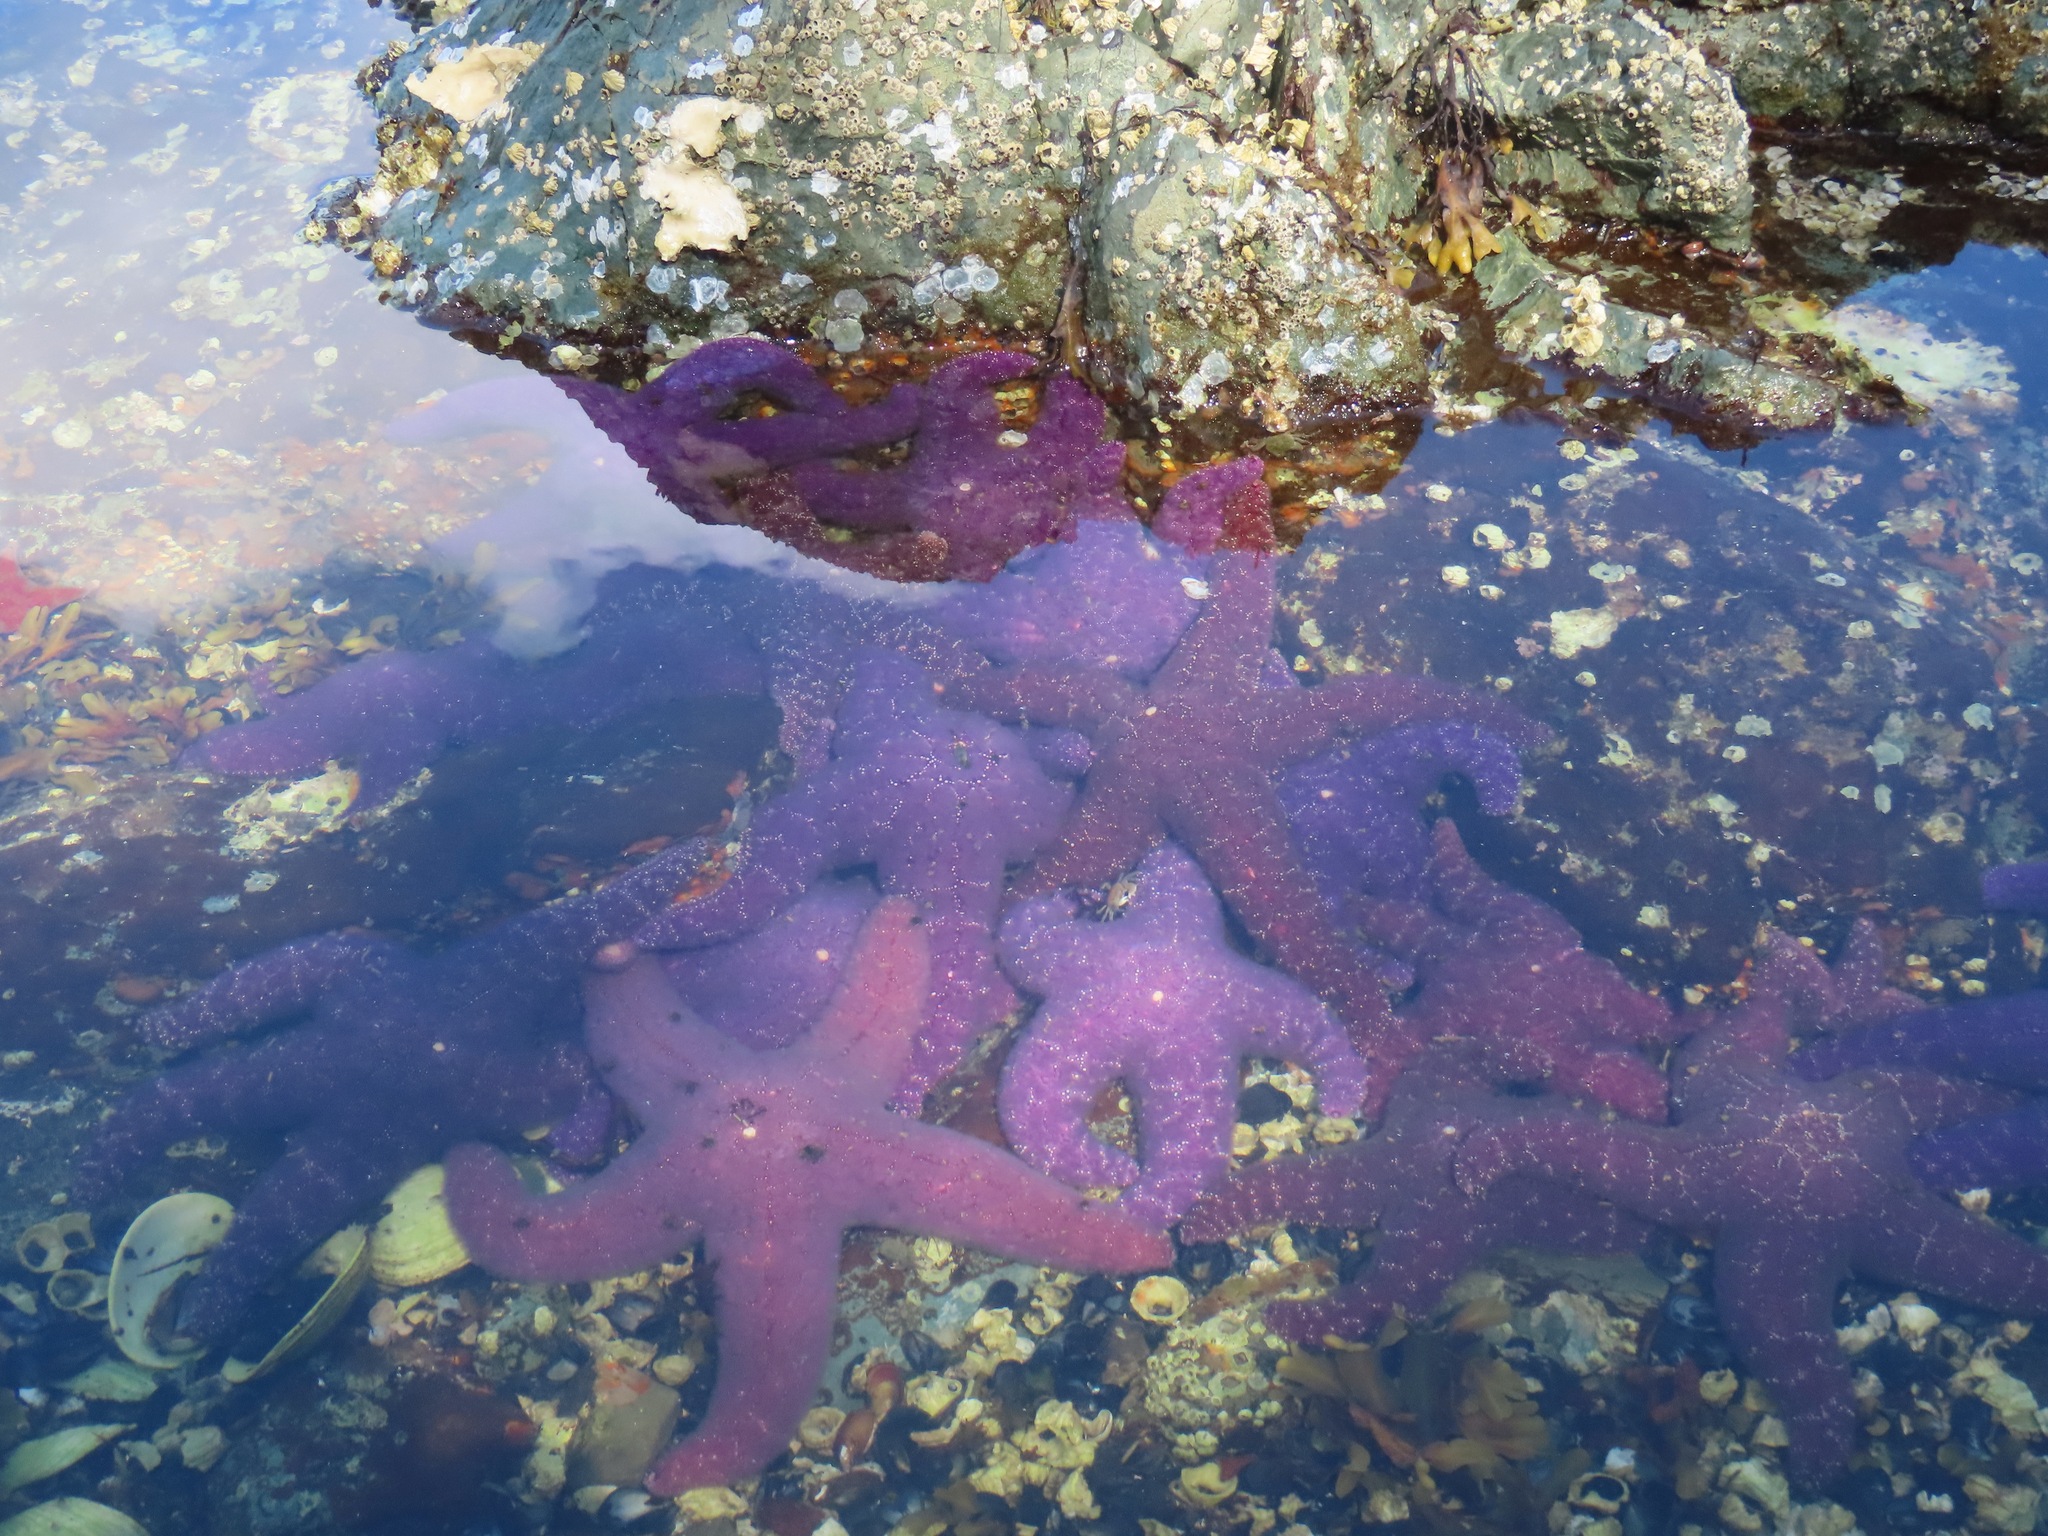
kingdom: Animalia
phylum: Echinodermata
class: Asteroidea
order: Forcipulatida
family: Asteriidae
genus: Pisaster
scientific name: Pisaster ochraceus
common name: Ochre stars
